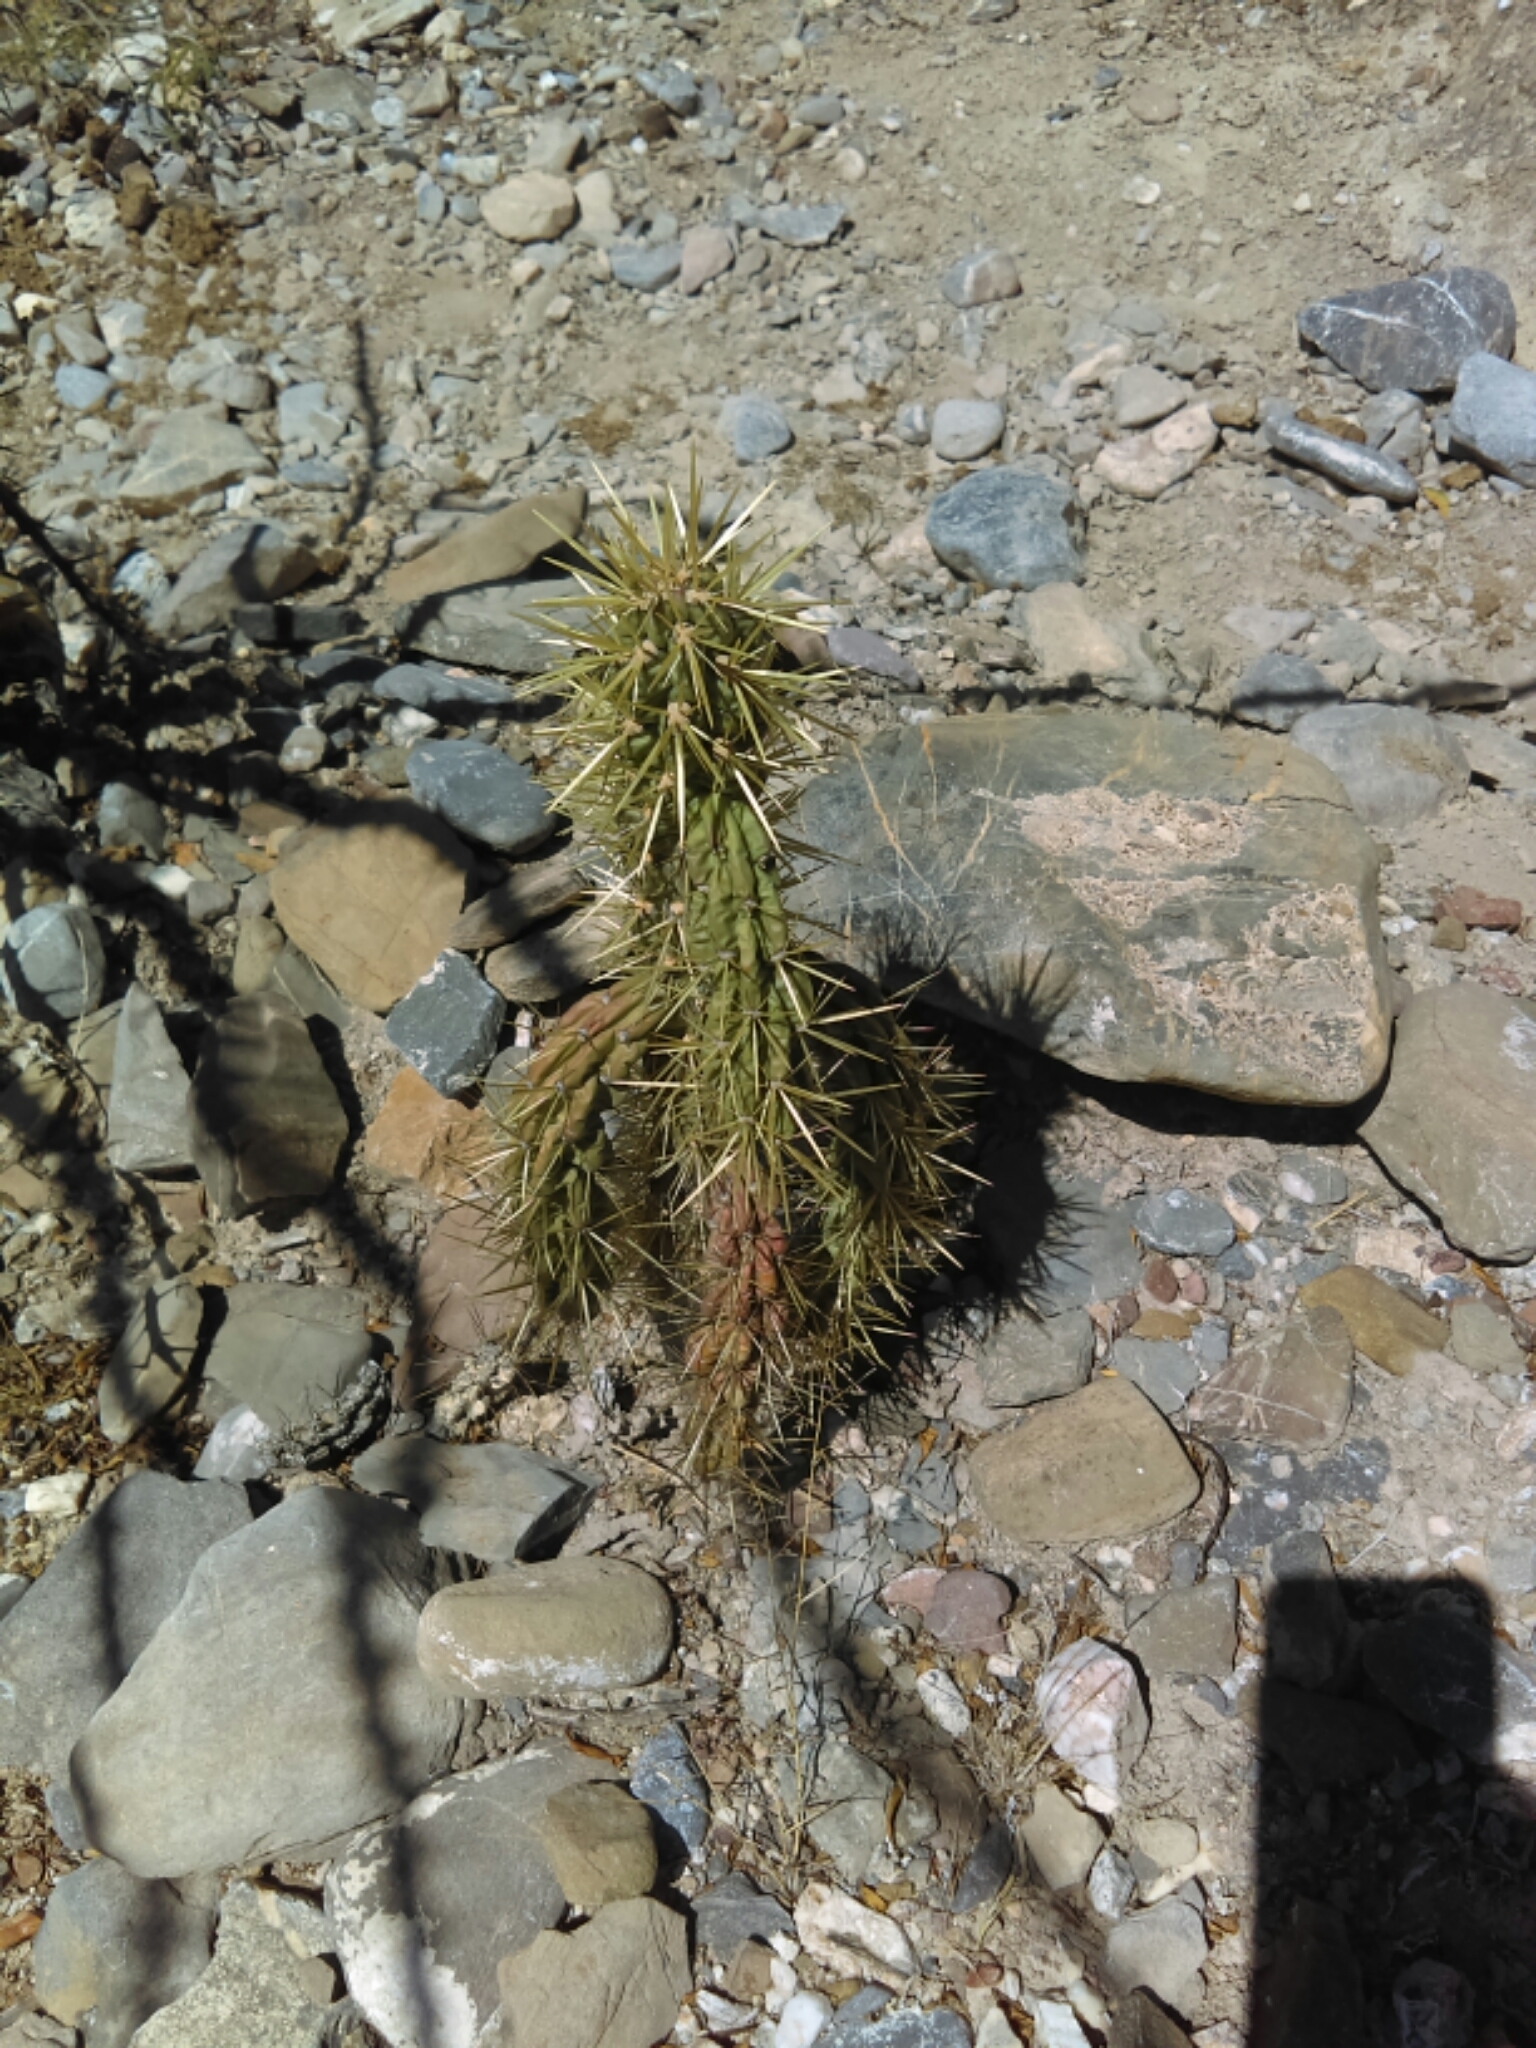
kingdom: Plantae
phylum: Tracheophyta
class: Magnoliopsida
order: Caryophyllales
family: Cactaceae
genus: Cylindropuntia
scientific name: Cylindropuntia imbricata
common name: Candelabrum cactus
